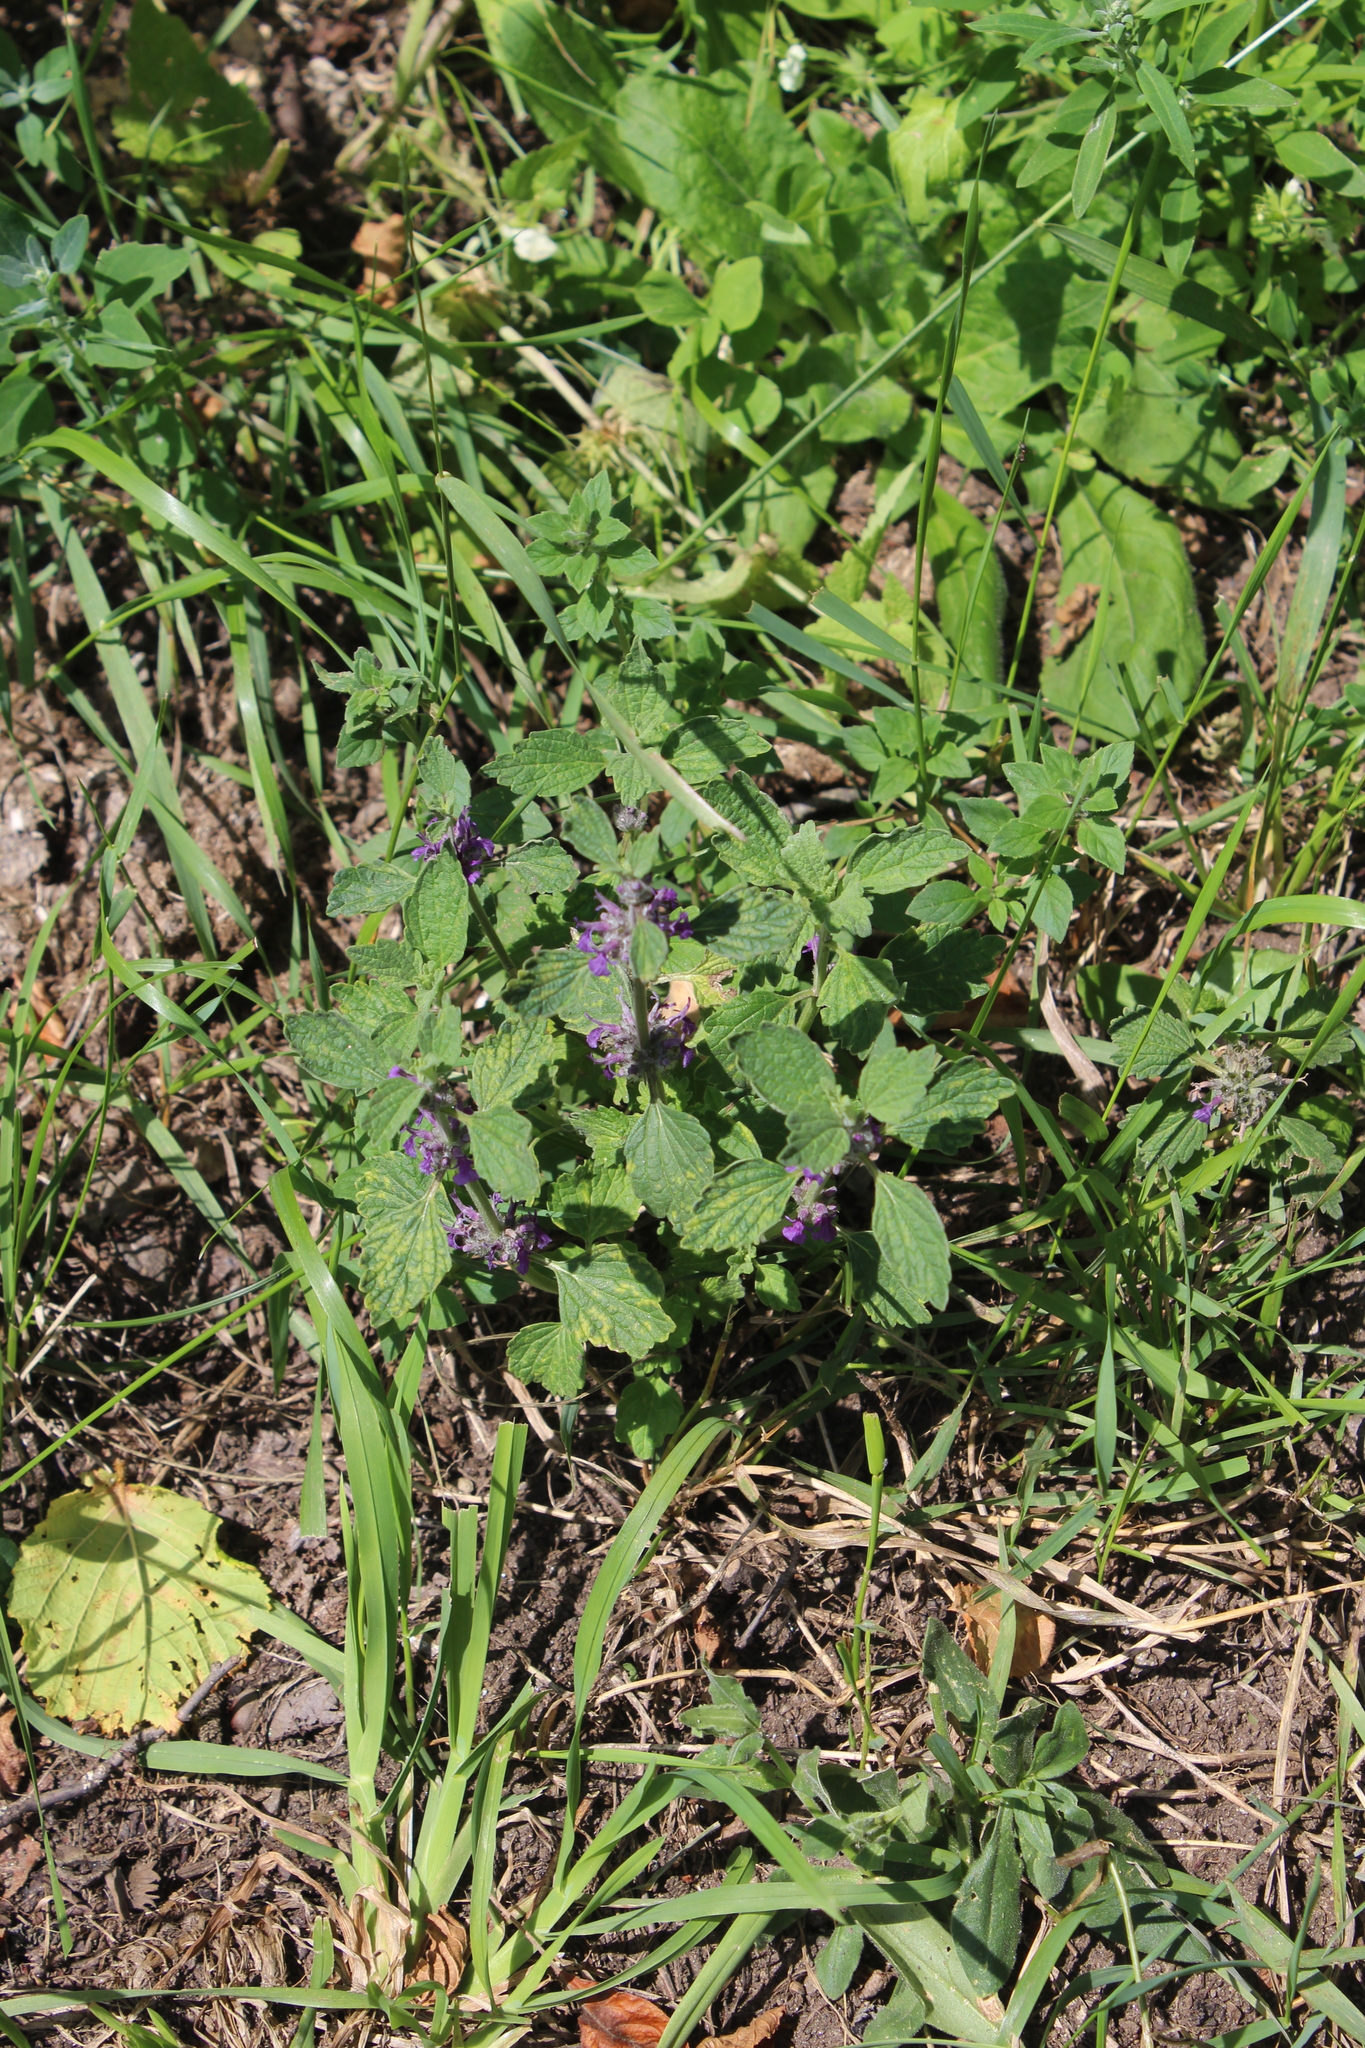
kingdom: Plantae
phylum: Tracheophyta
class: Magnoliopsida
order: Lamiales
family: Lamiaceae
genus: Marrubium
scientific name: Marrubium leonuroides
